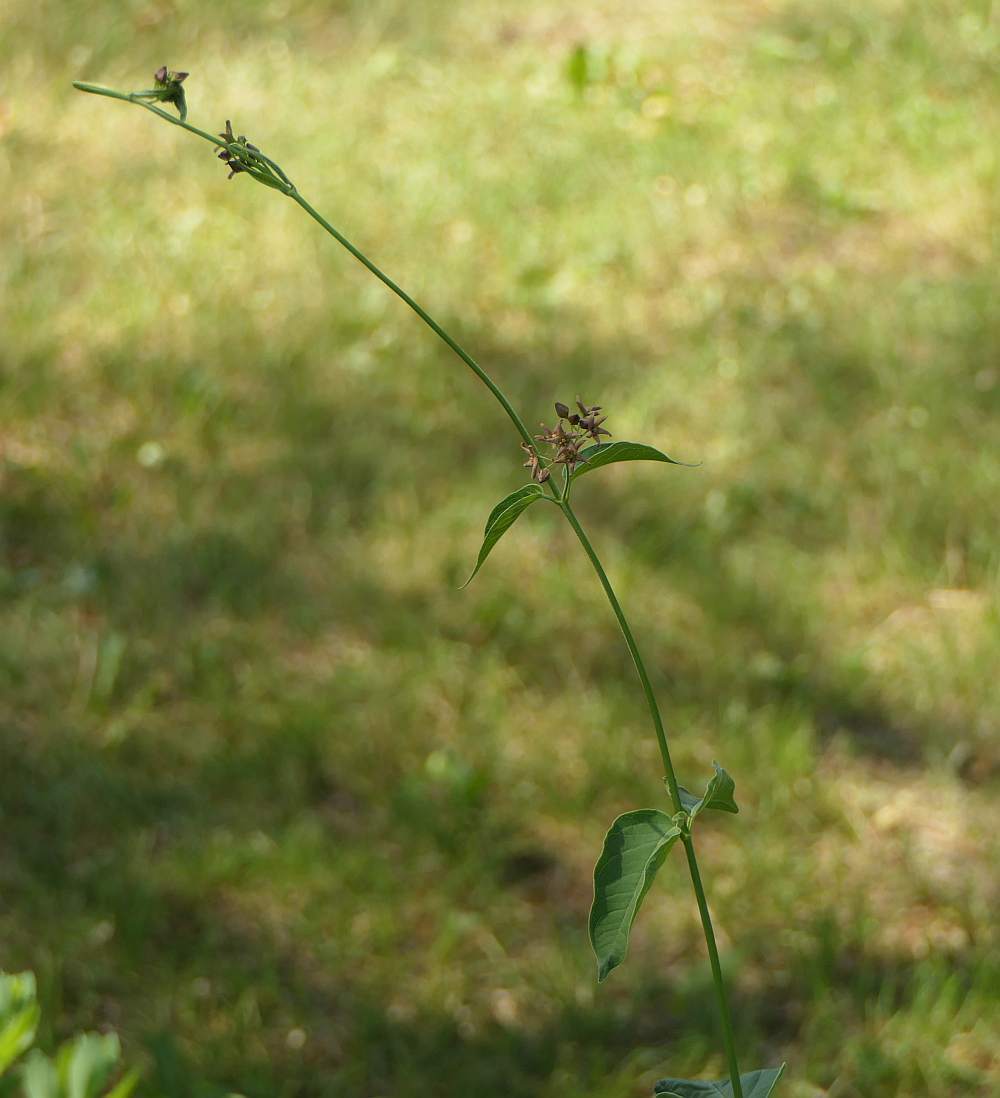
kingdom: Plantae
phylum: Tracheophyta
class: Magnoliopsida
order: Gentianales
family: Apocynaceae
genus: Vincetoxicum
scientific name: Vincetoxicum rossicum
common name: Dog-strangling vine
